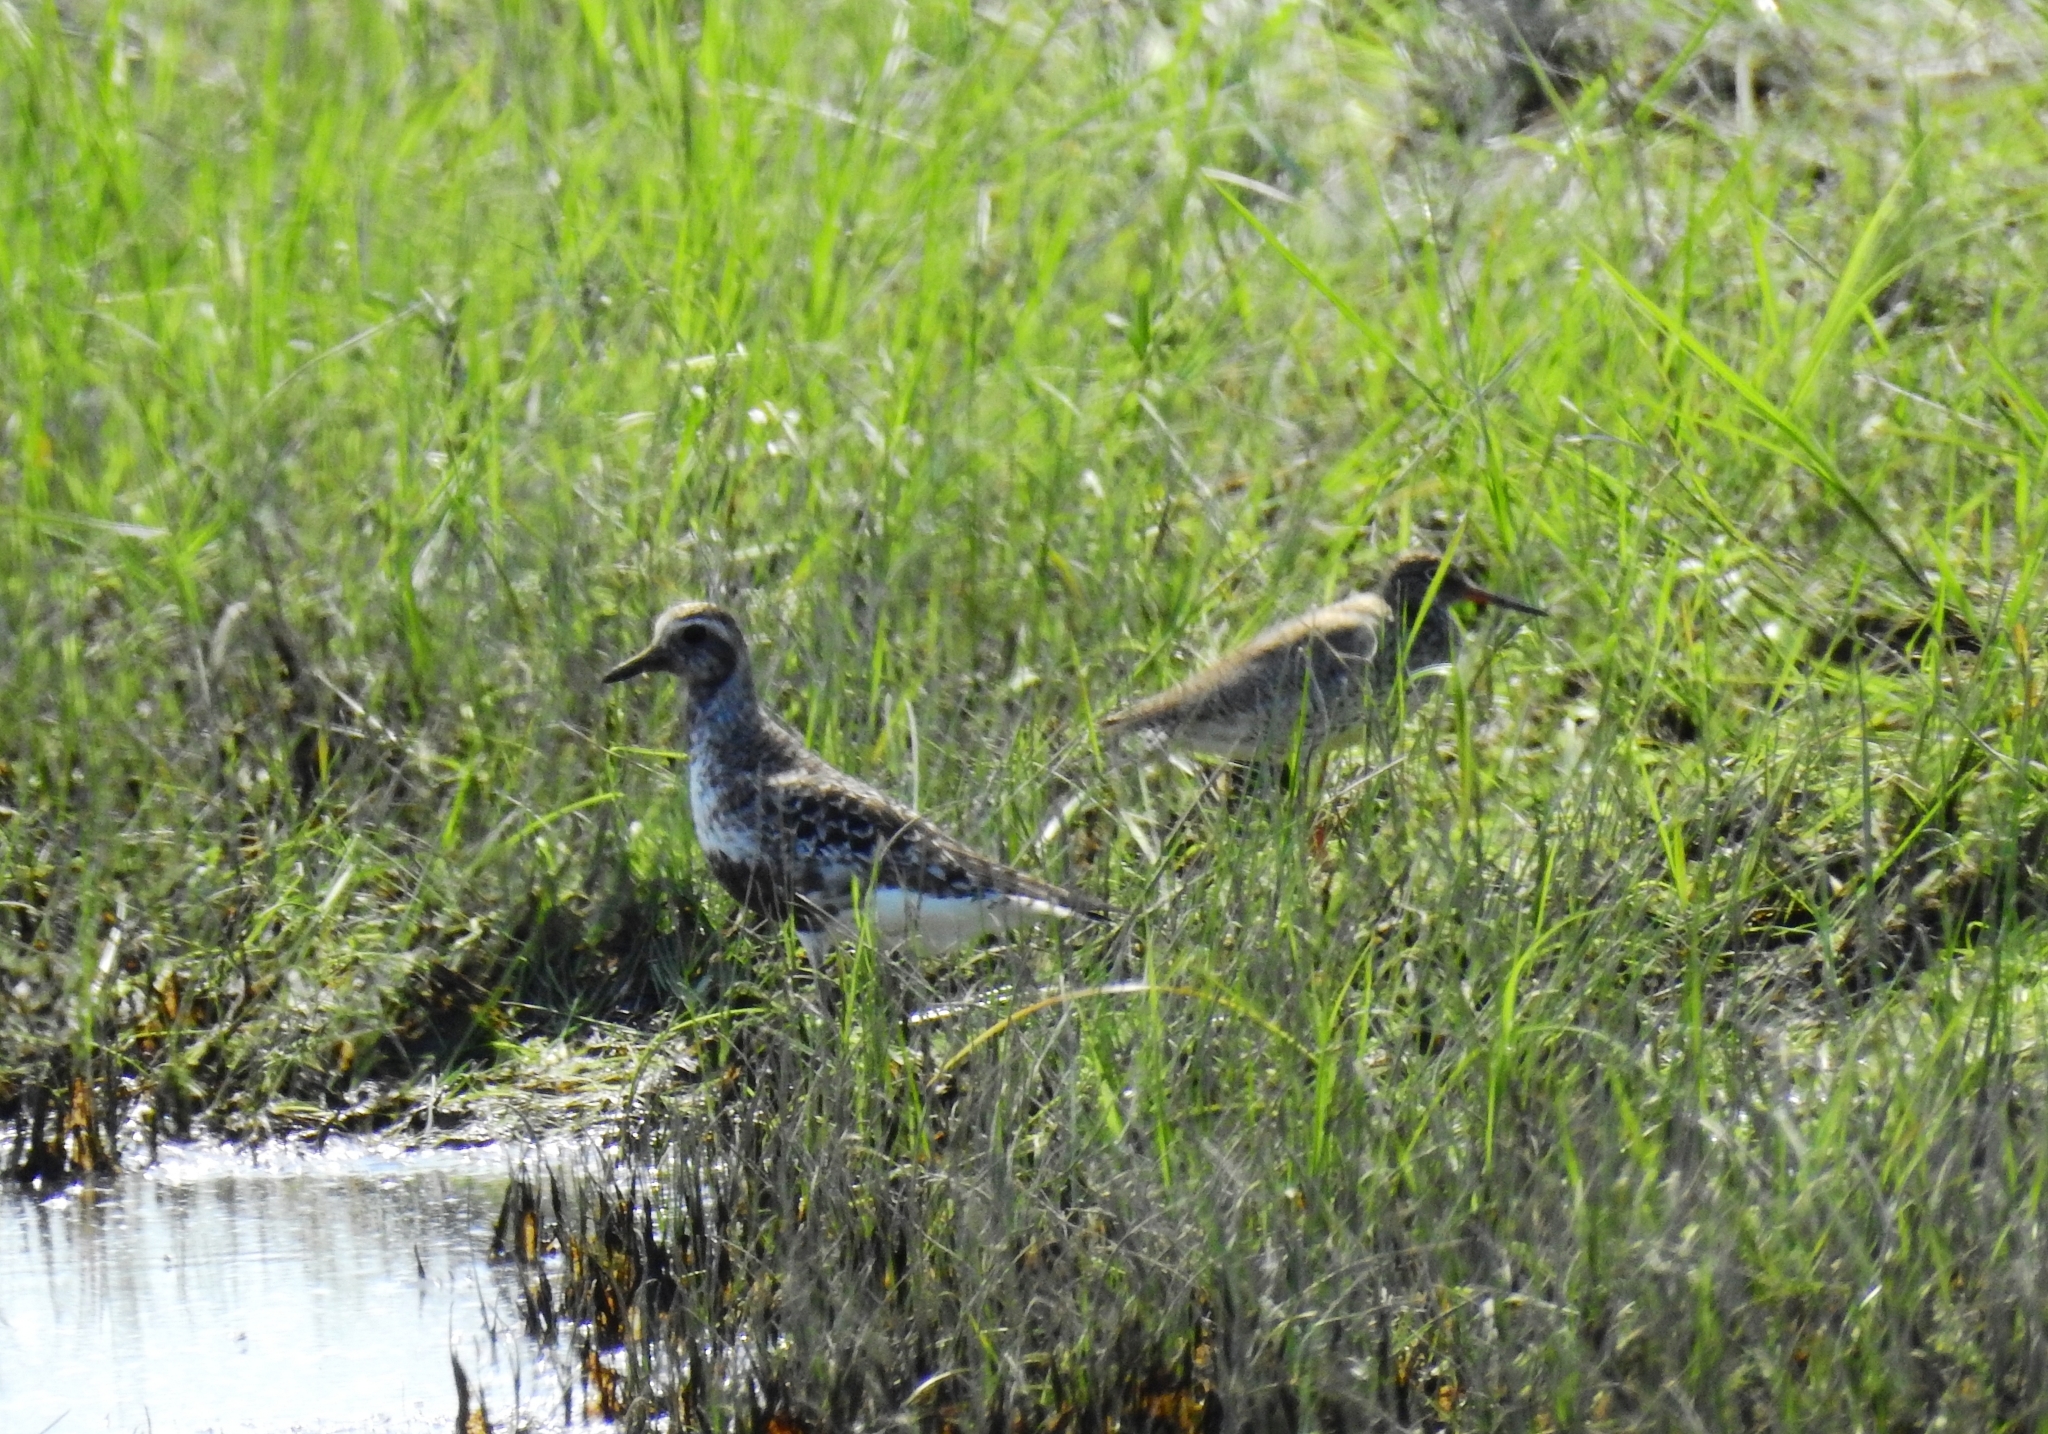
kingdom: Animalia
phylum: Chordata
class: Aves
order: Charadriiformes
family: Charadriidae
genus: Pluvialis
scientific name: Pluvialis apricaria
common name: European golden plover
